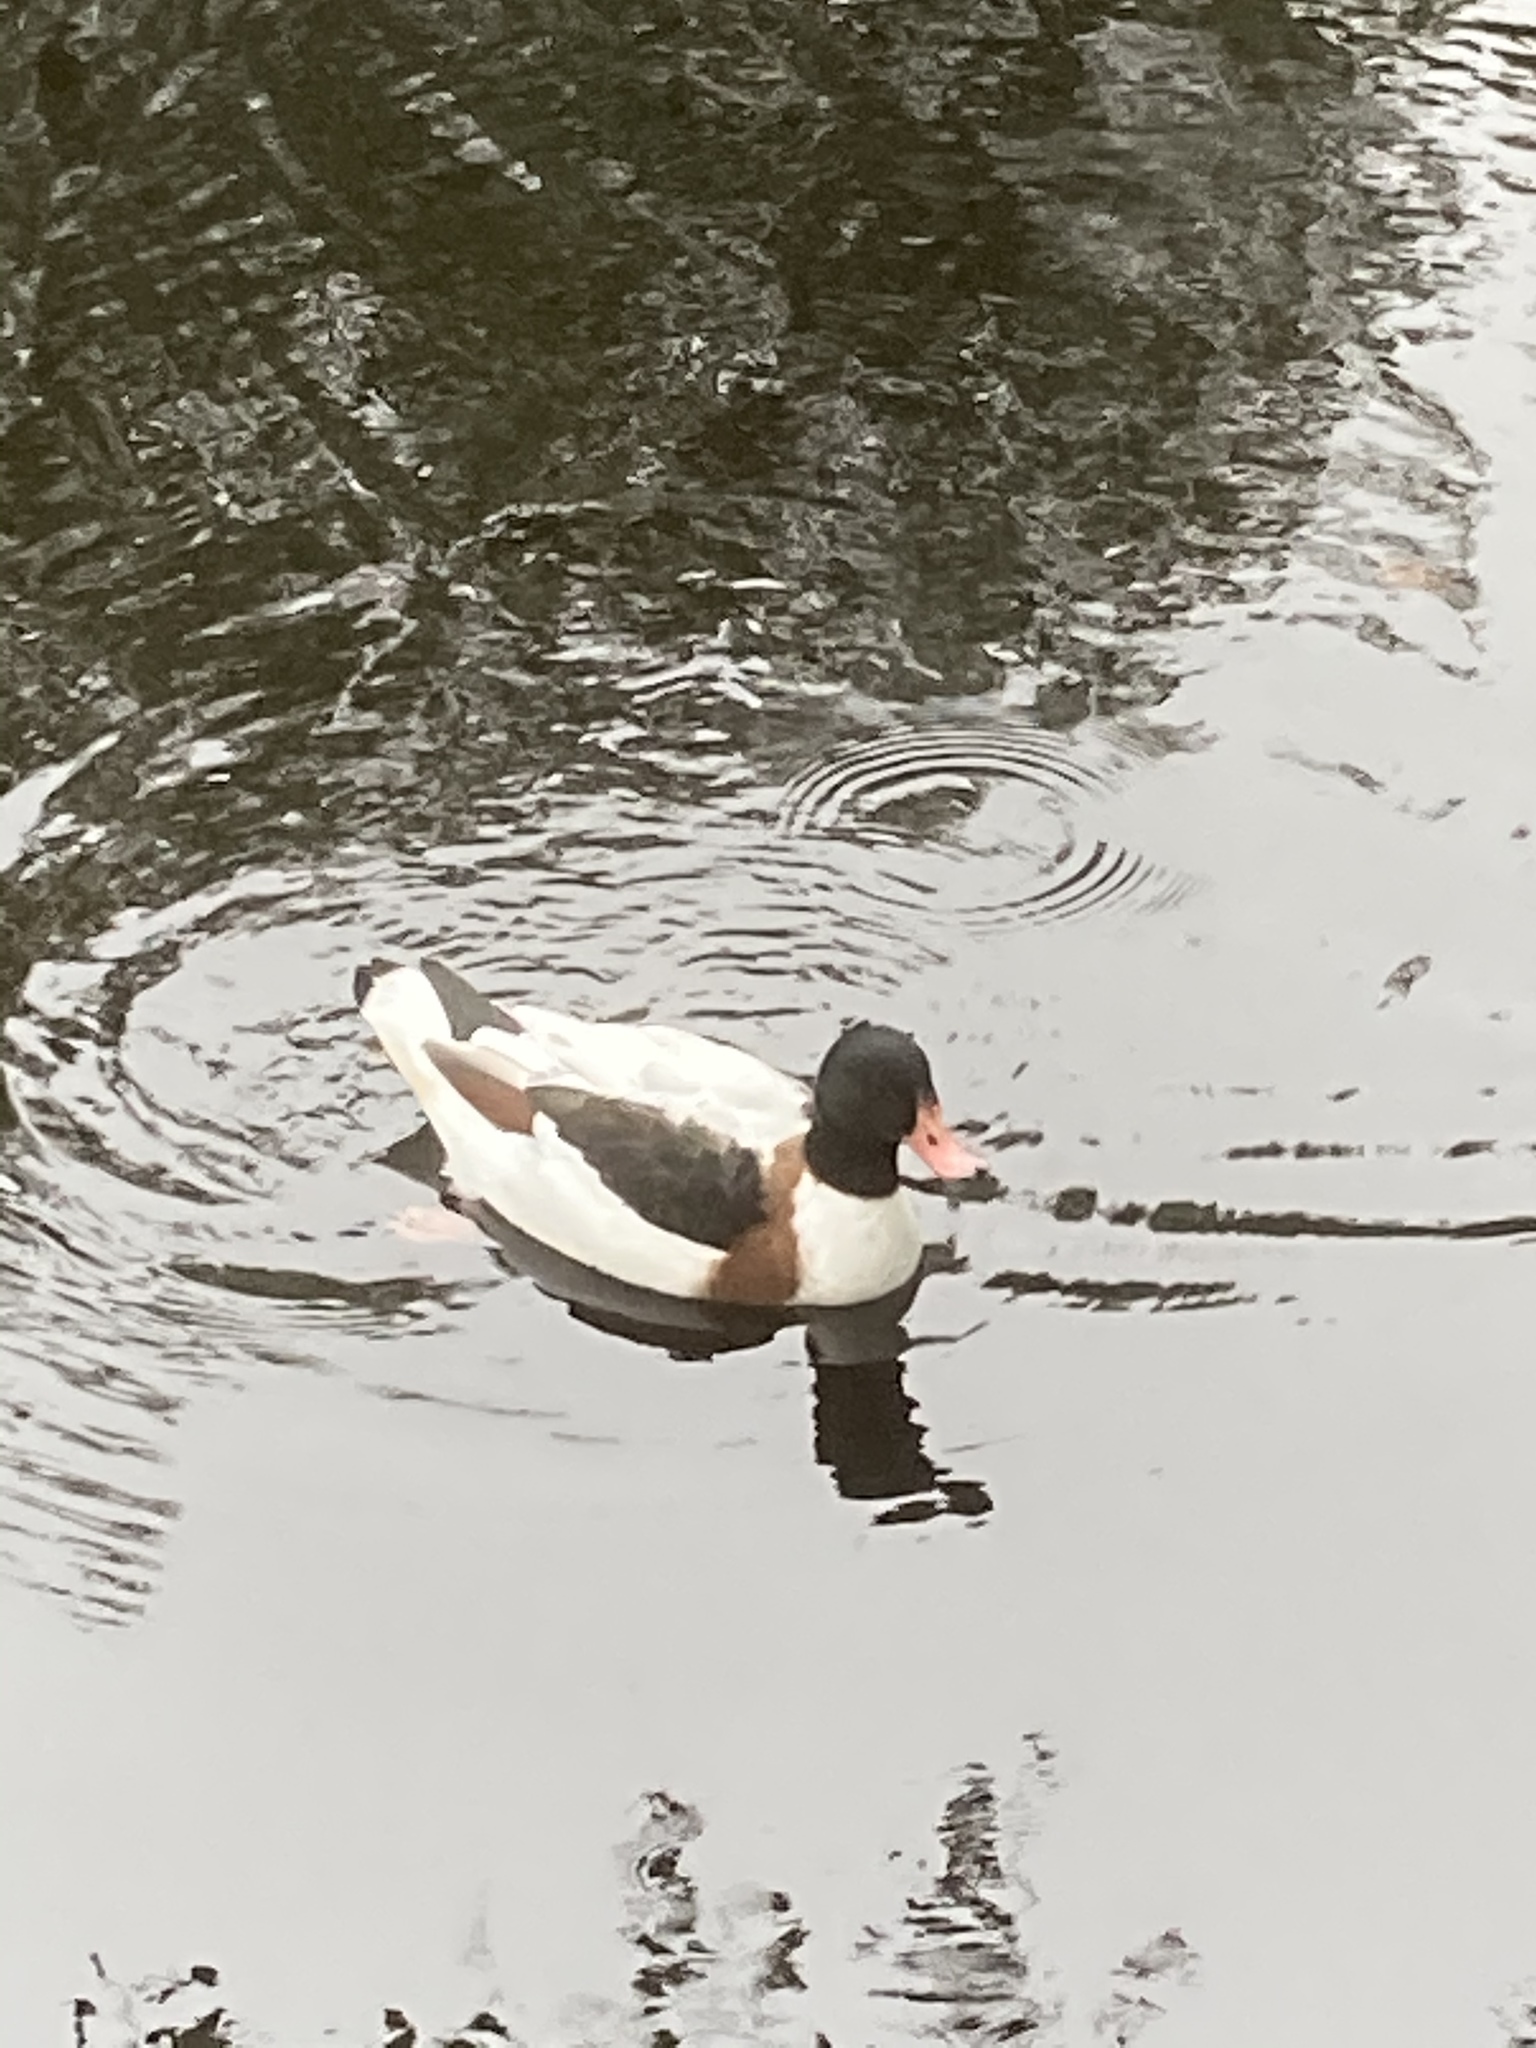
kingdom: Animalia
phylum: Chordata
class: Aves
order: Anseriformes
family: Anatidae
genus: Tadorna
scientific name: Tadorna tadorna
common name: Common shelduck
